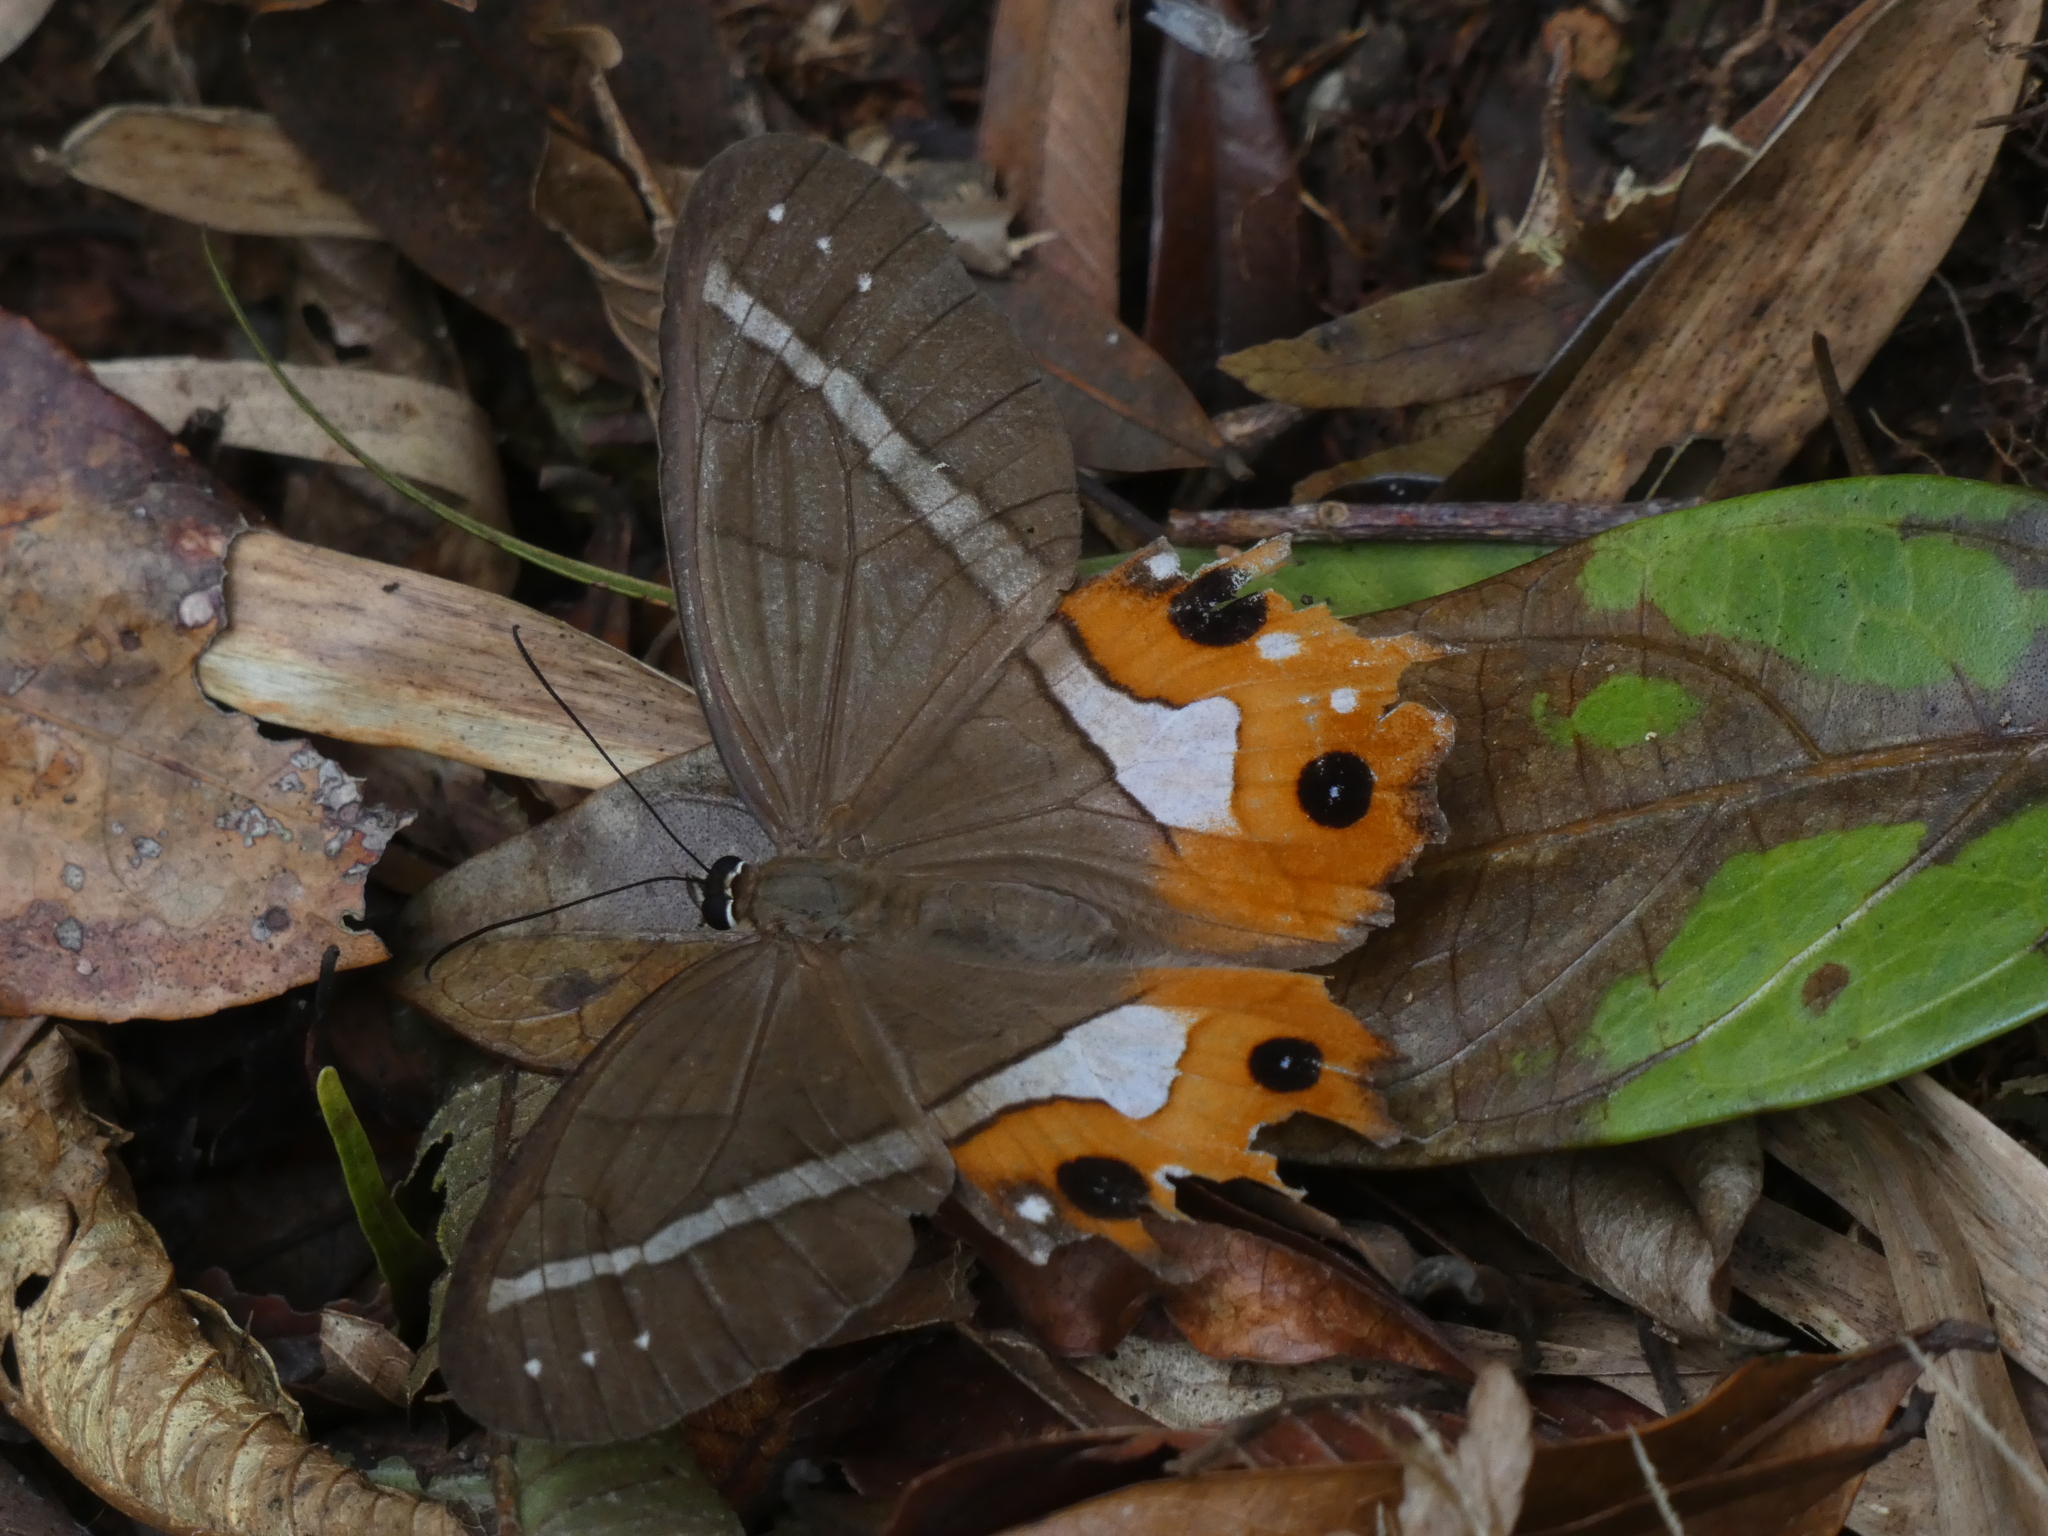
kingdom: Animalia
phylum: Arthropoda
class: Insecta
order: Lepidoptera
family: Nymphalidae
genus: Pierella
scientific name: Pierella nereis
